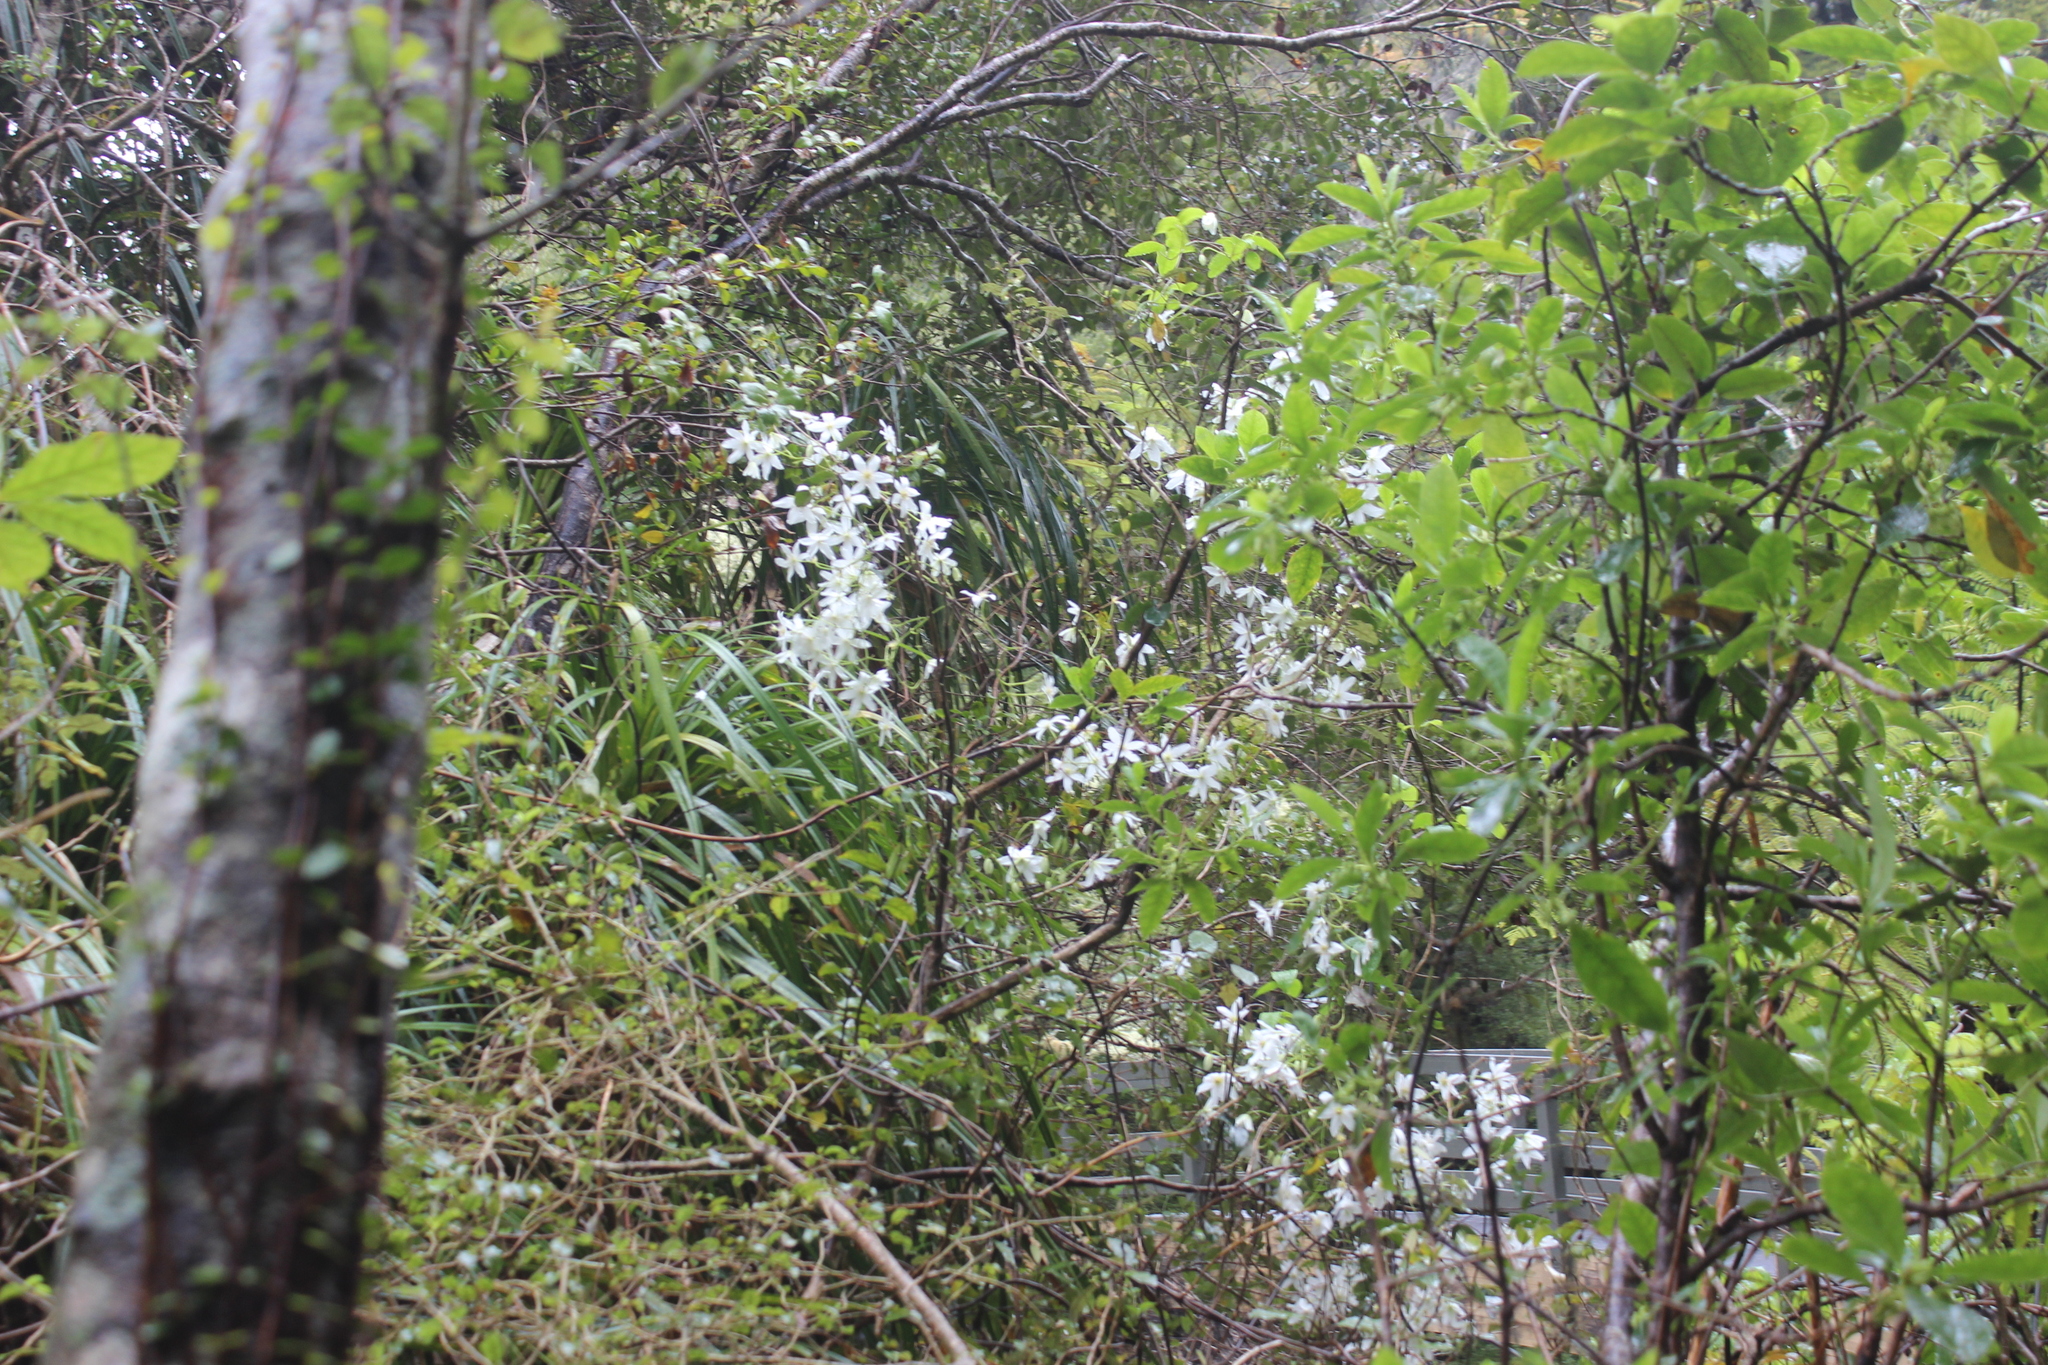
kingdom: Plantae
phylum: Tracheophyta
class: Magnoliopsida
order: Ranunculales
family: Ranunculaceae
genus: Clematis
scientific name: Clematis paniculata
